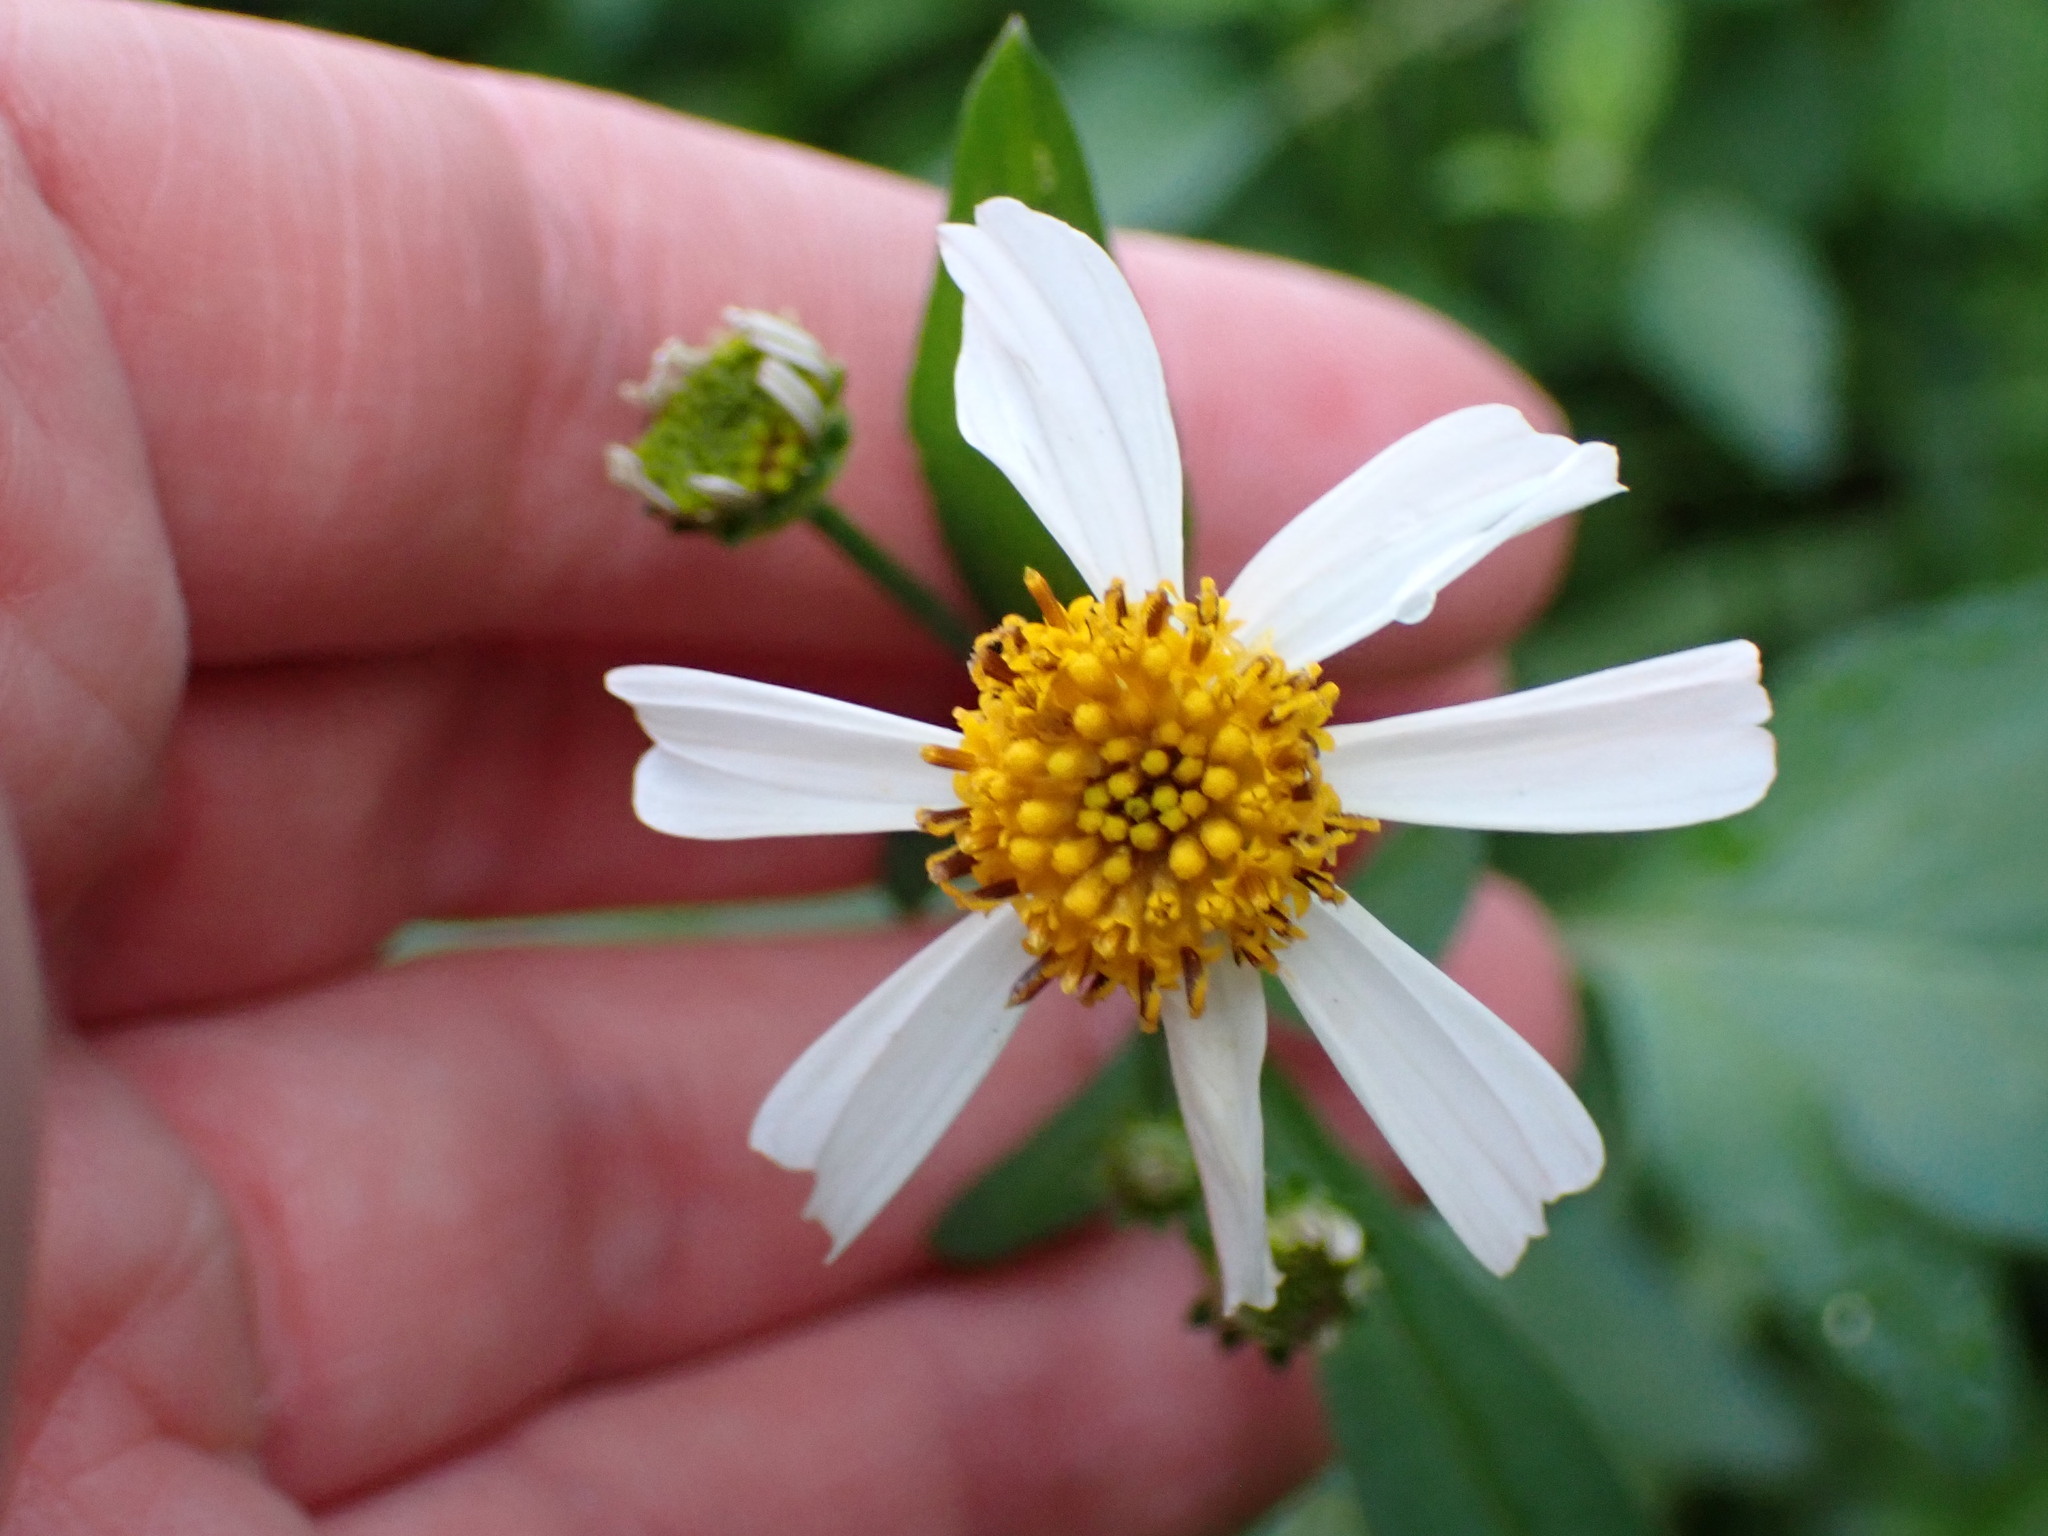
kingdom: Plantae
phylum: Tracheophyta
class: Magnoliopsida
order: Asterales
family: Asteraceae
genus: Bidens
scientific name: Bidens alba
